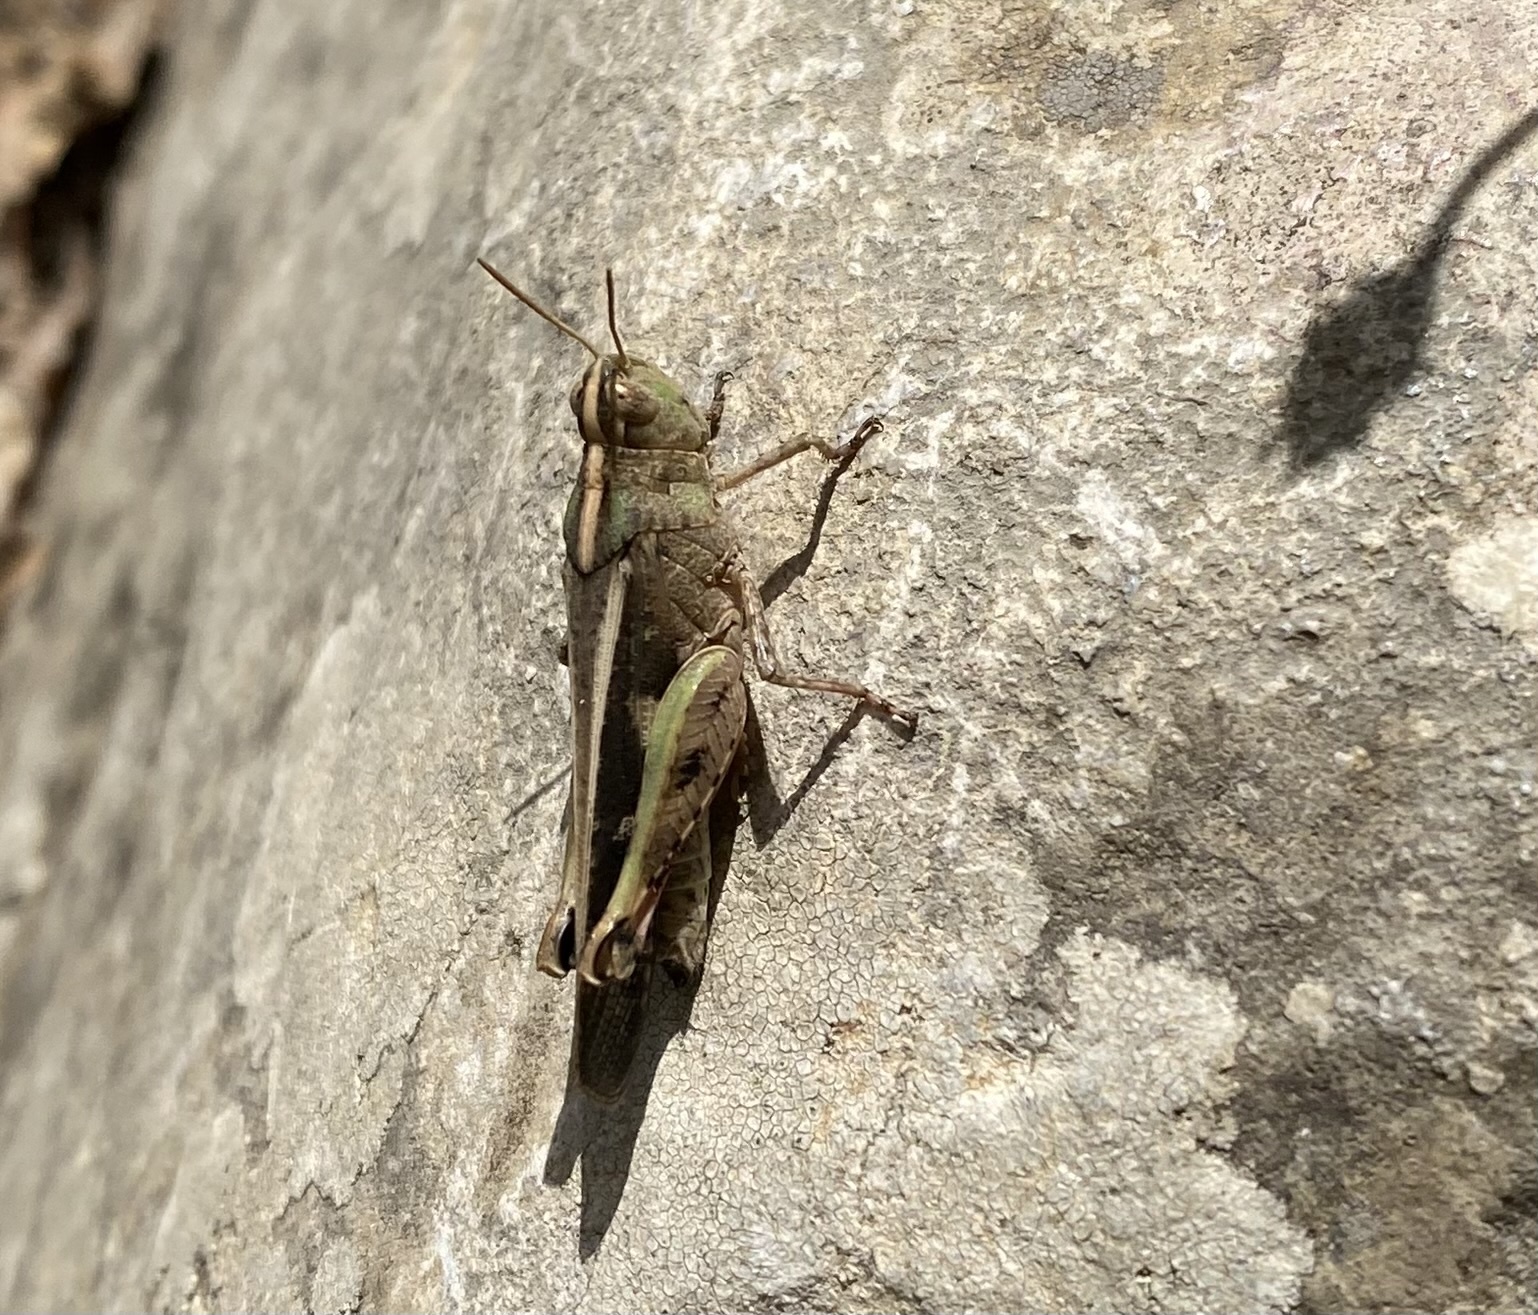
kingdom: Animalia
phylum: Arthropoda
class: Insecta
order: Orthoptera
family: Acrididae
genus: Aiolopus
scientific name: Aiolopus strepens
